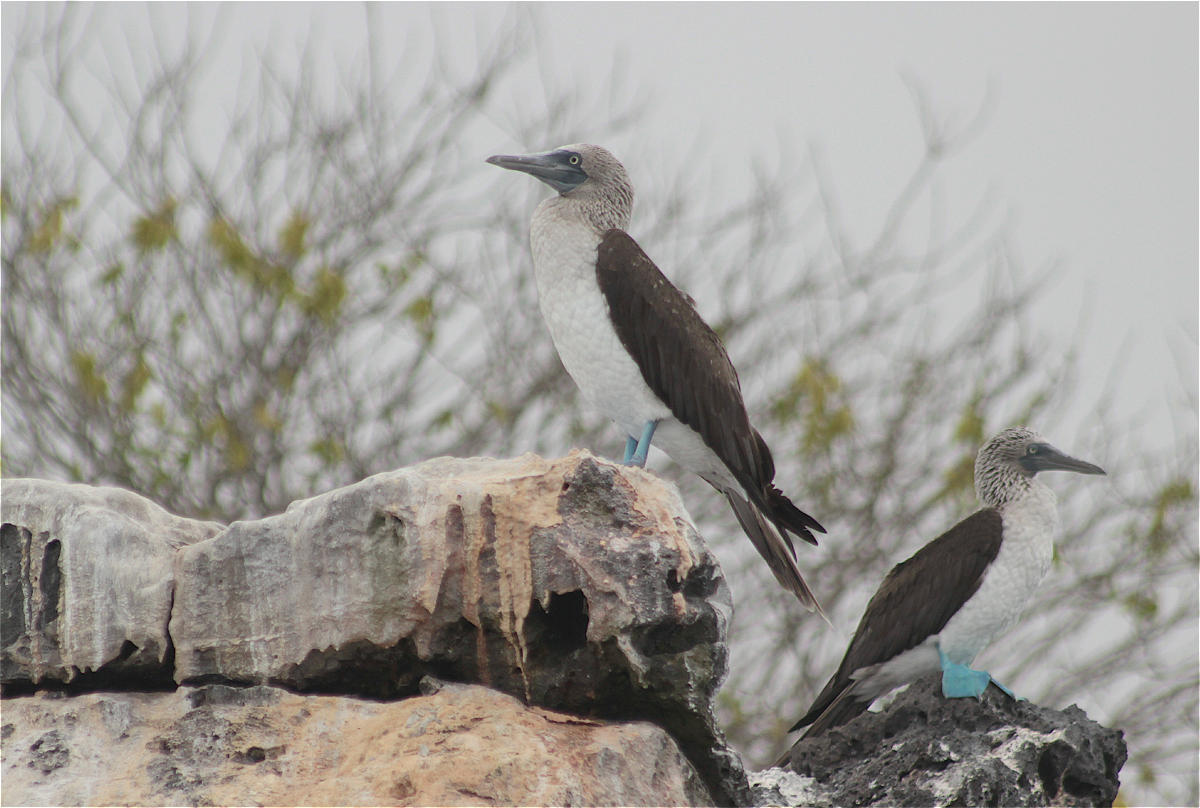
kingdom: Animalia
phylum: Chordata
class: Aves
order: Suliformes
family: Sulidae
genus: Sula
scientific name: Sula nebouxii
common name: Blue-footed booby
